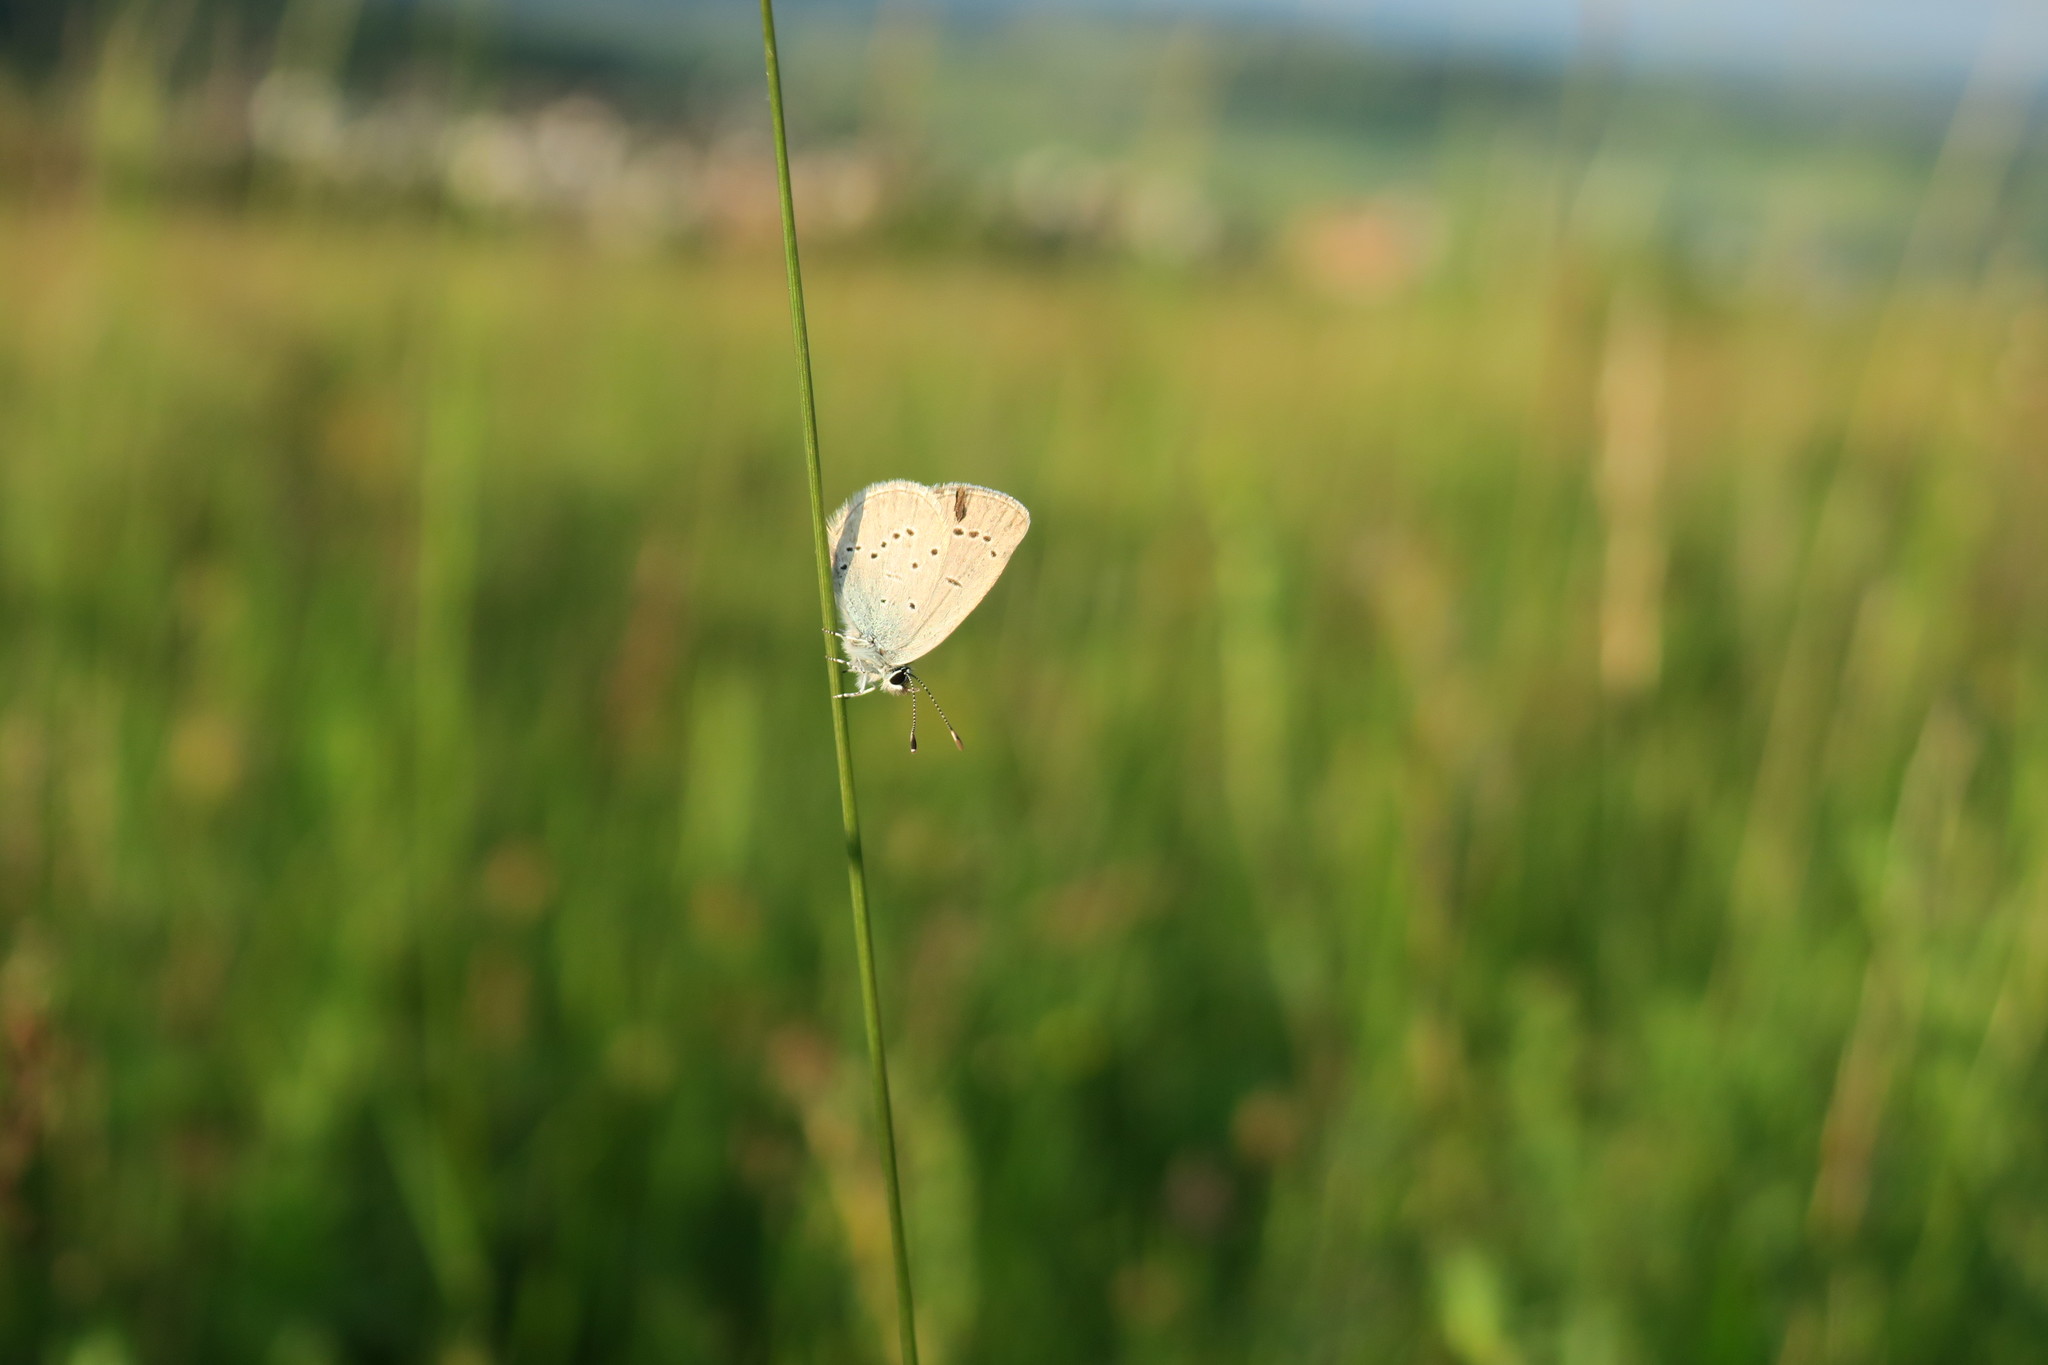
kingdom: Animalia
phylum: Arthropoda
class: Insecta
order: Lepidoptera
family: Lycaenidae
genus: Cupido
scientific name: Cupido minimus
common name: Small blue
